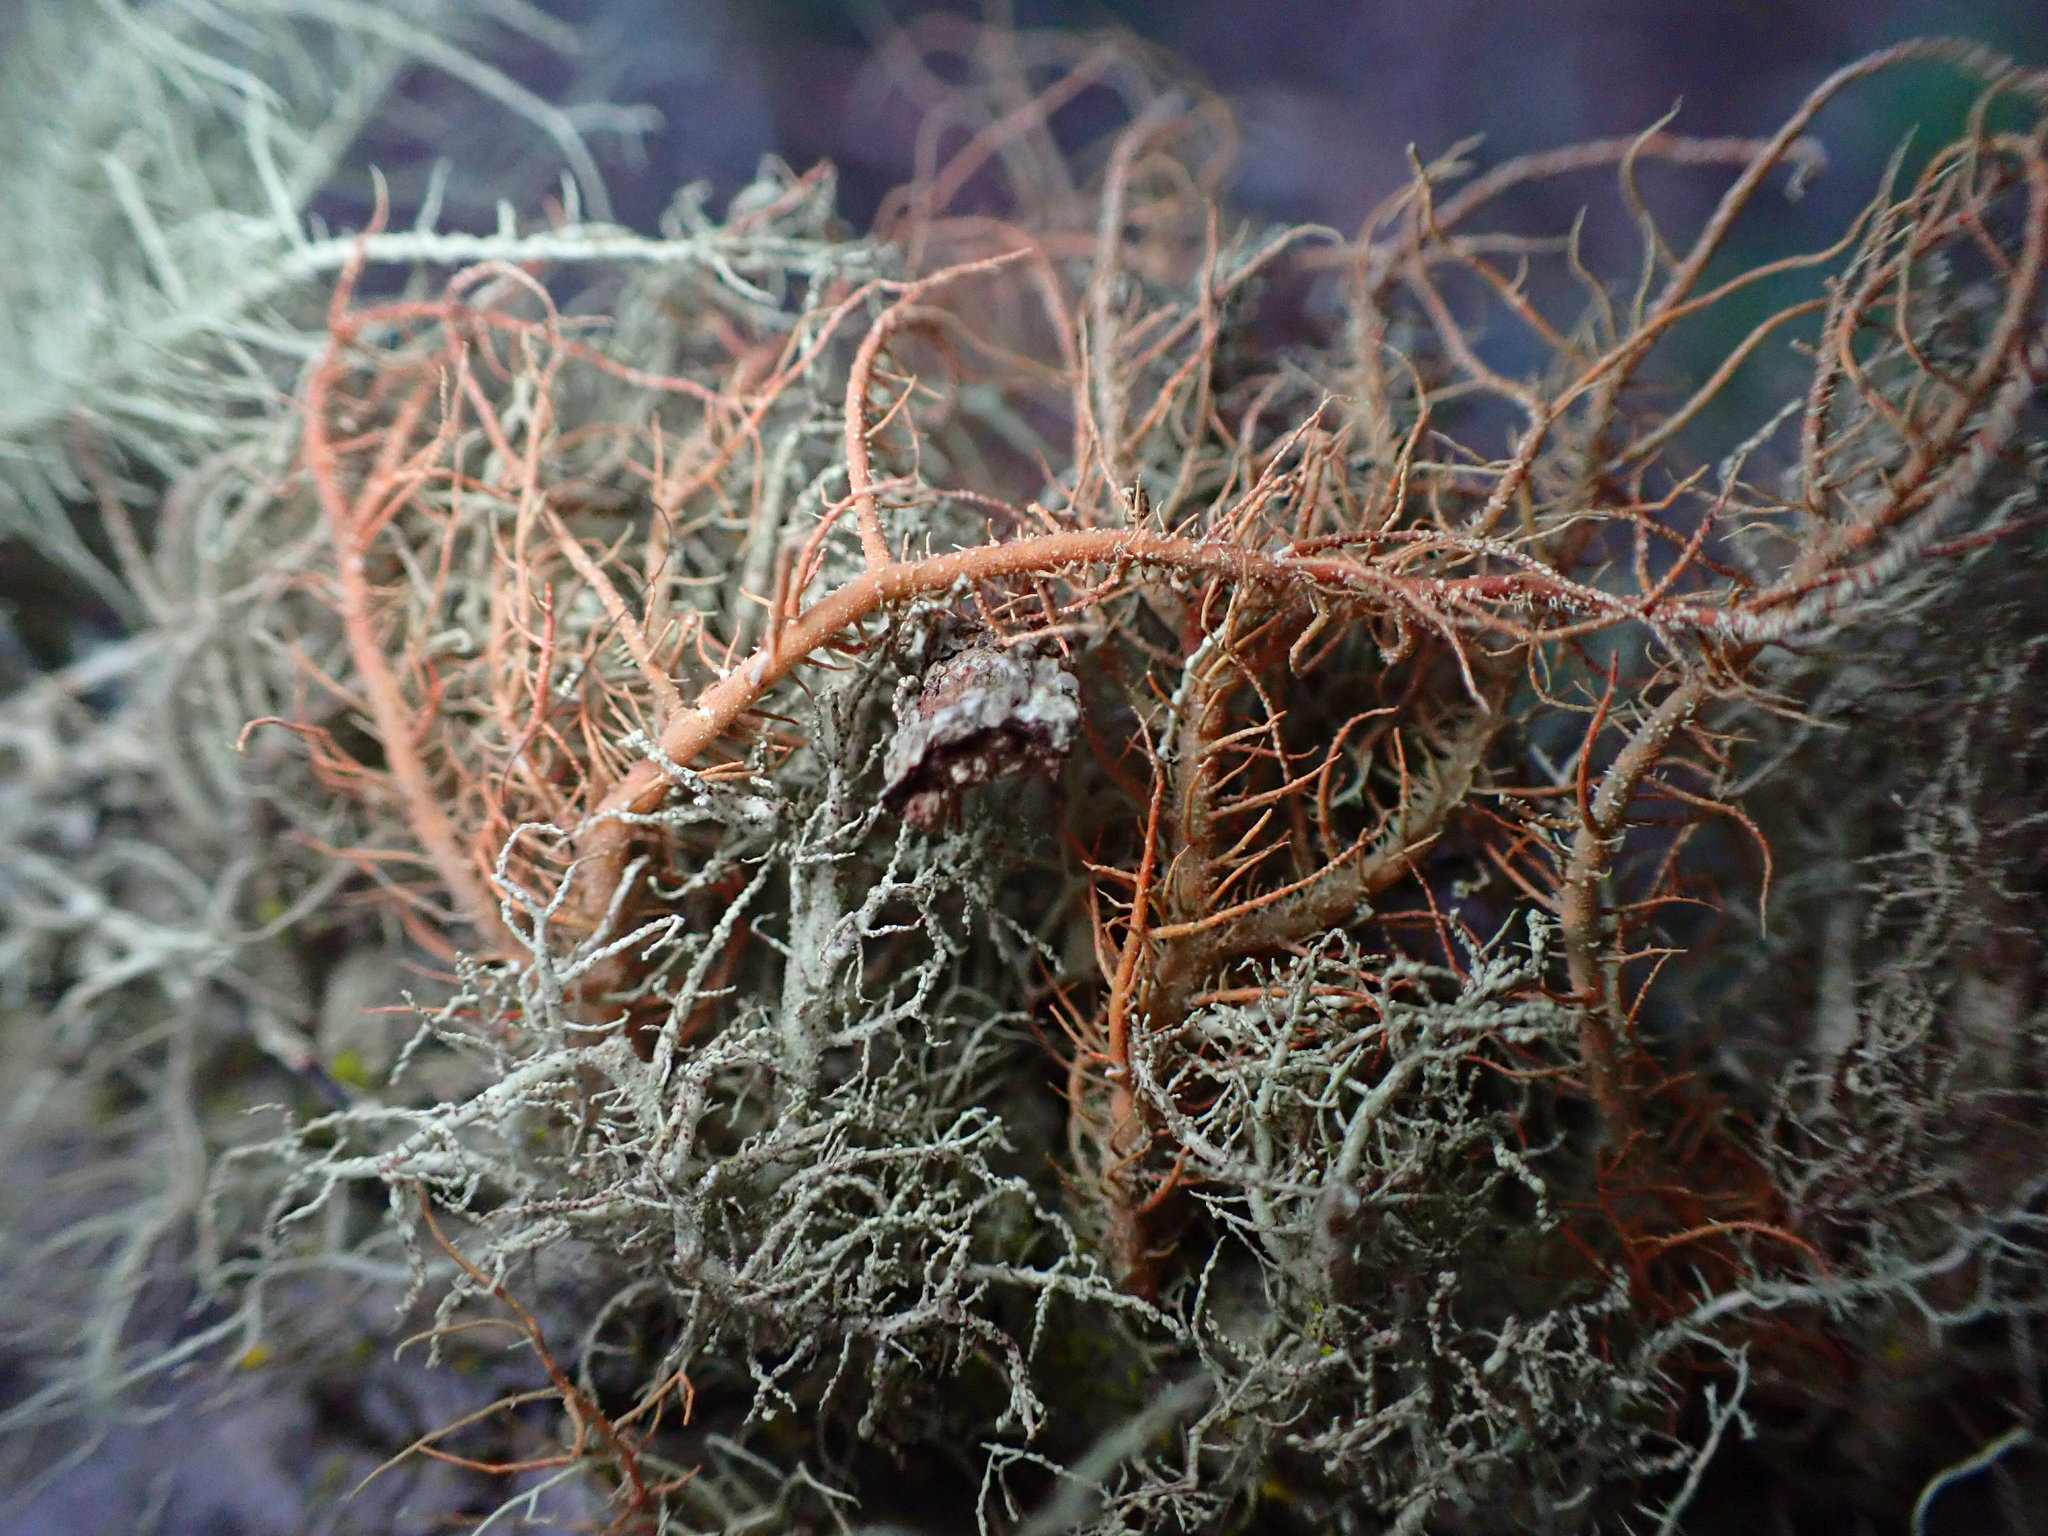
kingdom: Fungi
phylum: Ascomycota
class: Lecanoromycetes
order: Lecanorales
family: Parmeliaceae
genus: Usnea
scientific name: Usnea rubicunda
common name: Red beard lichen
